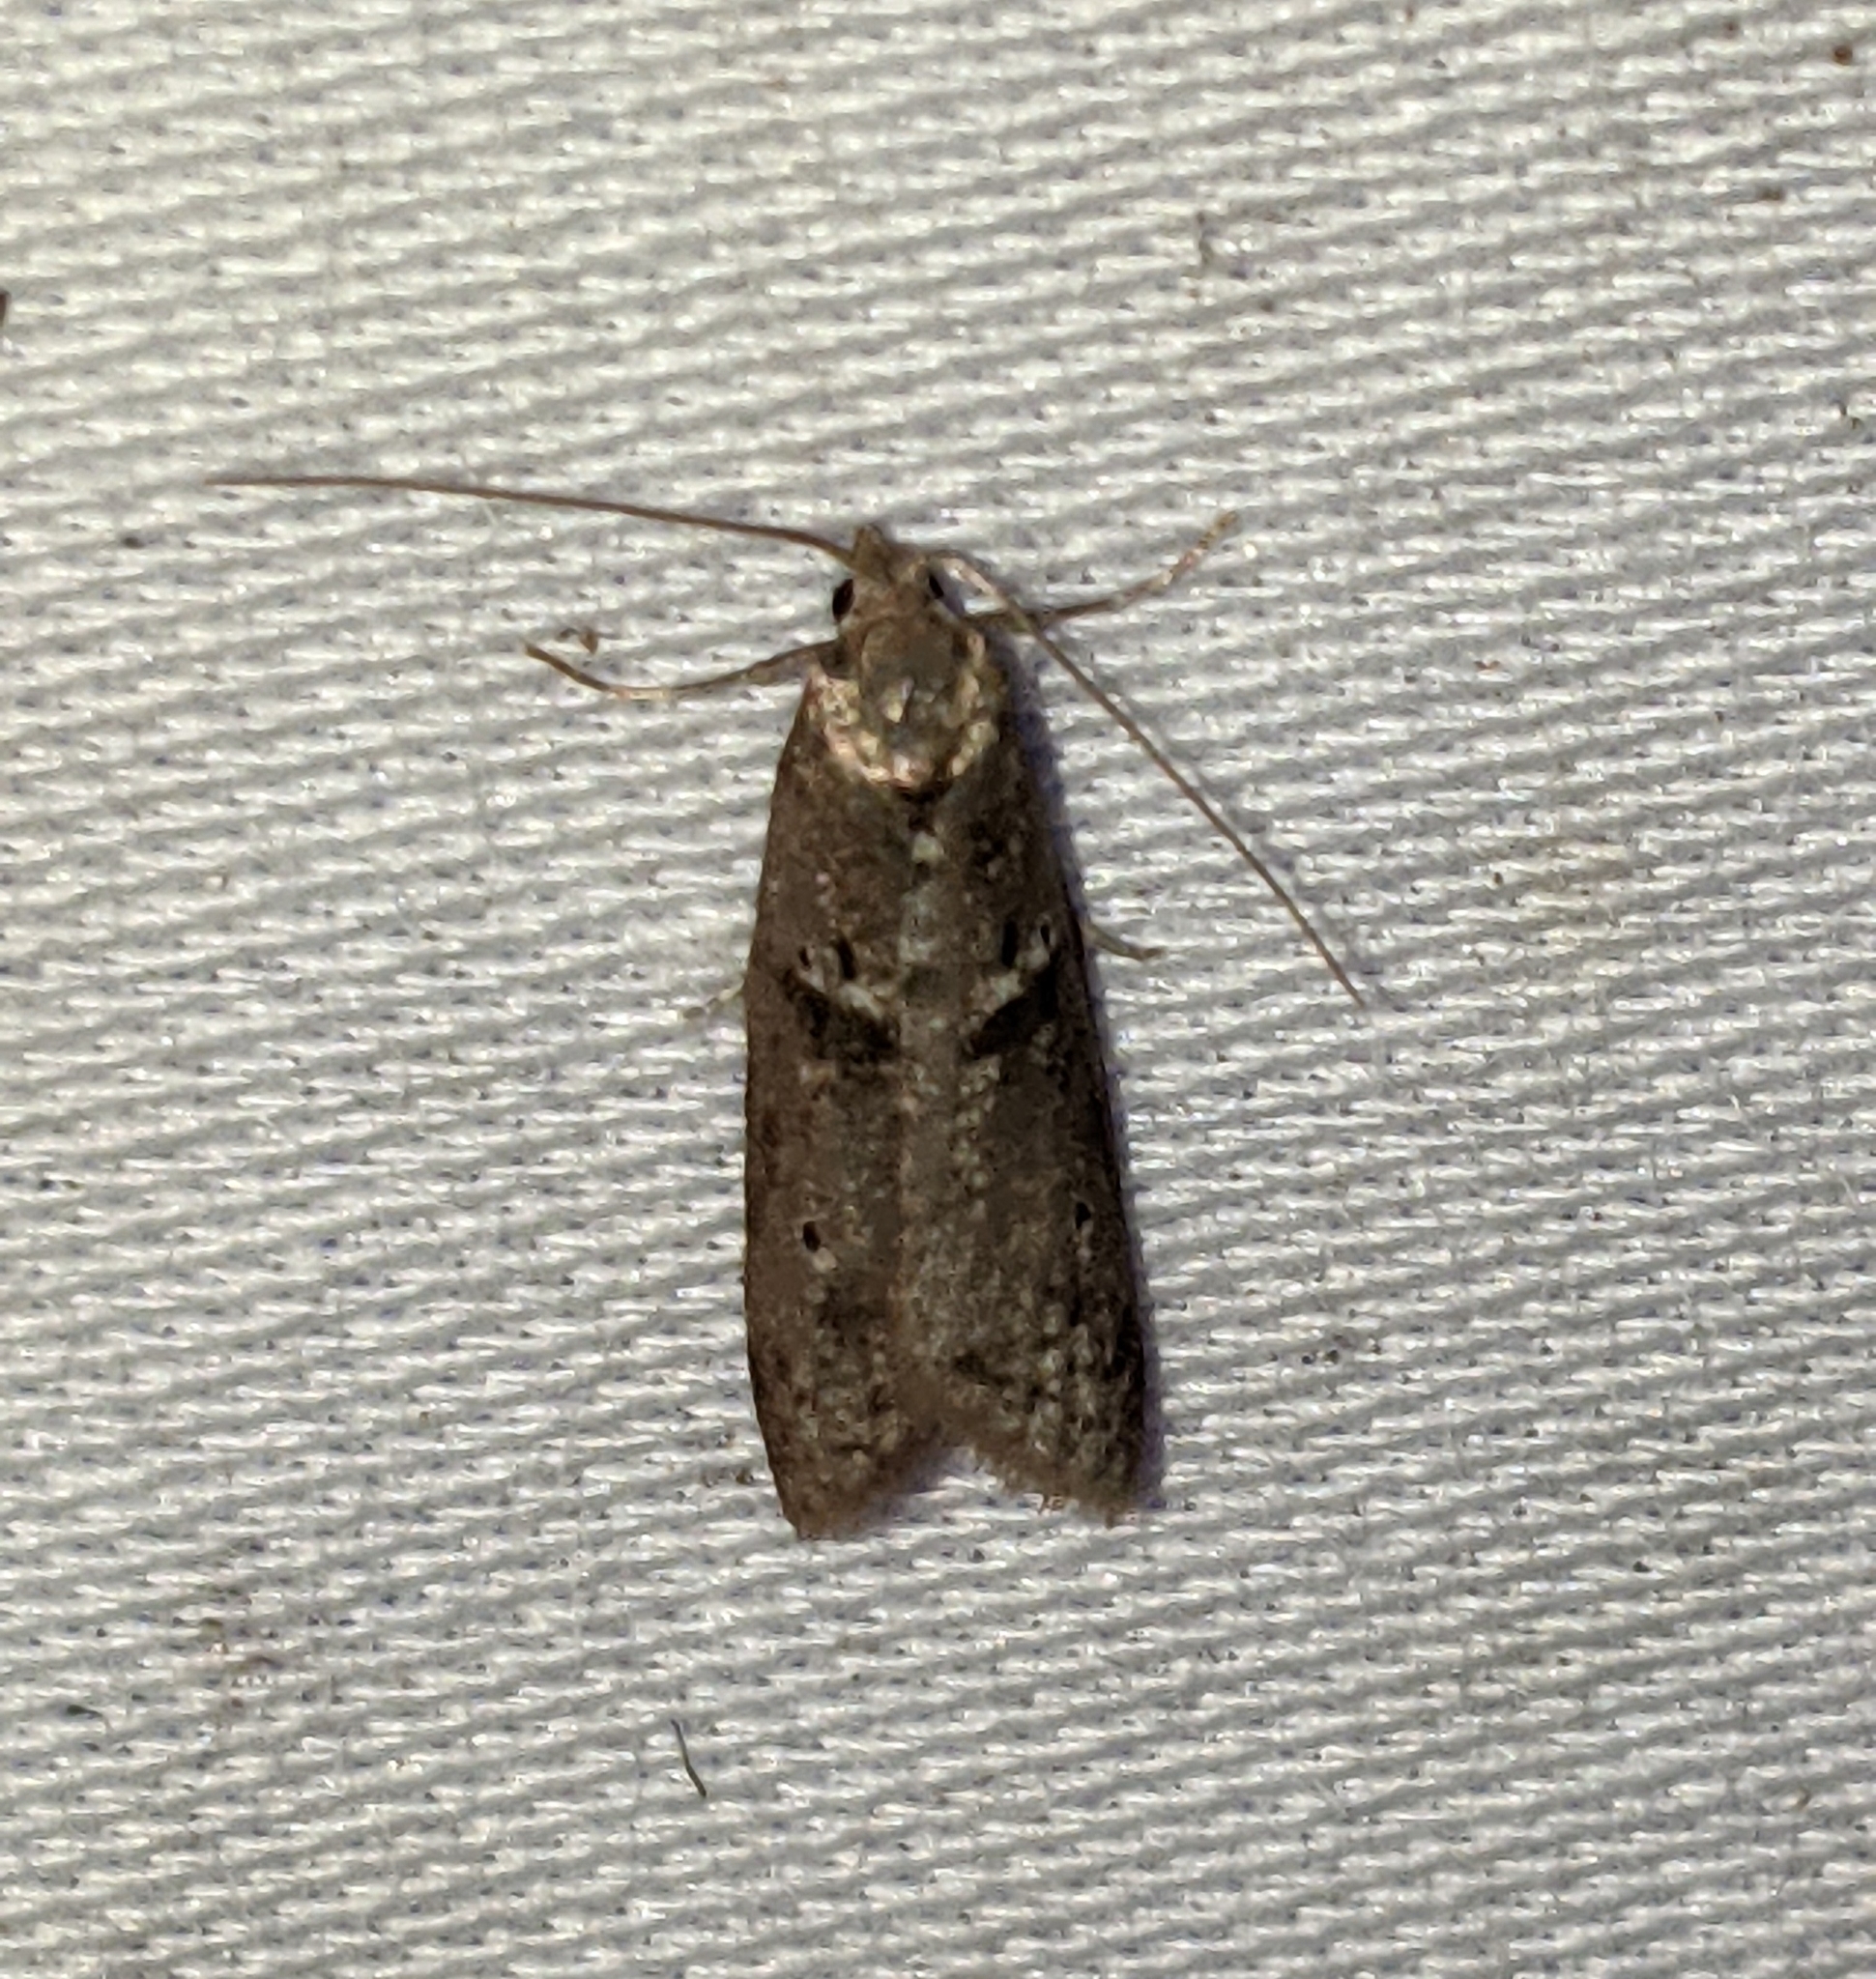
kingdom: Animalia
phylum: Arthropoda
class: Insecta
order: Lepidoptera
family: Copromorphidae
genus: Lotisma
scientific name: Lotisma trigonana
